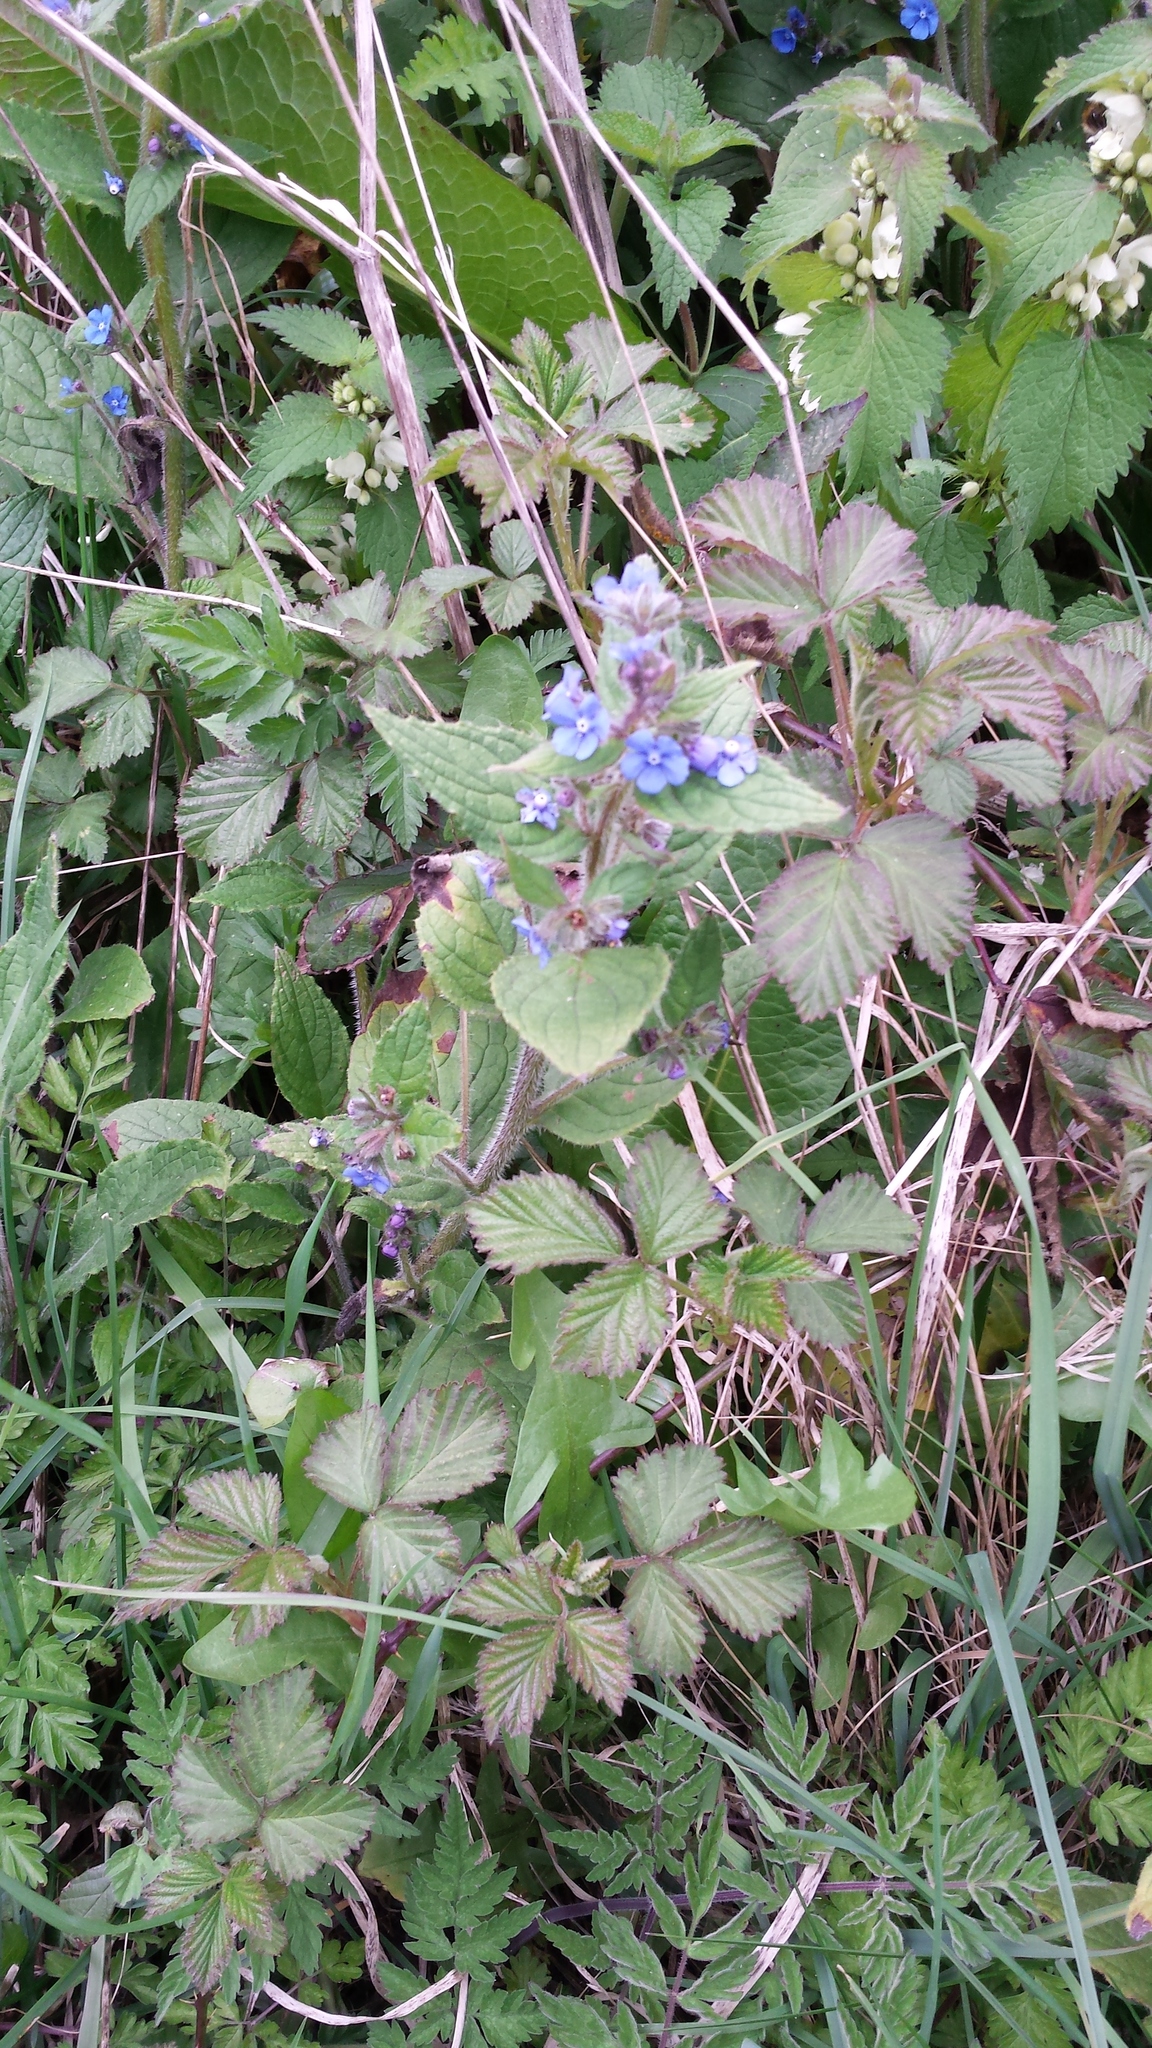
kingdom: Plantae
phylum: Tracheophyta
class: Magnoliopsida
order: Boraginales
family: Boraginaceae
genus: Pentaglottis
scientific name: Pentaglottis sempervirens
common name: Green alkanet
